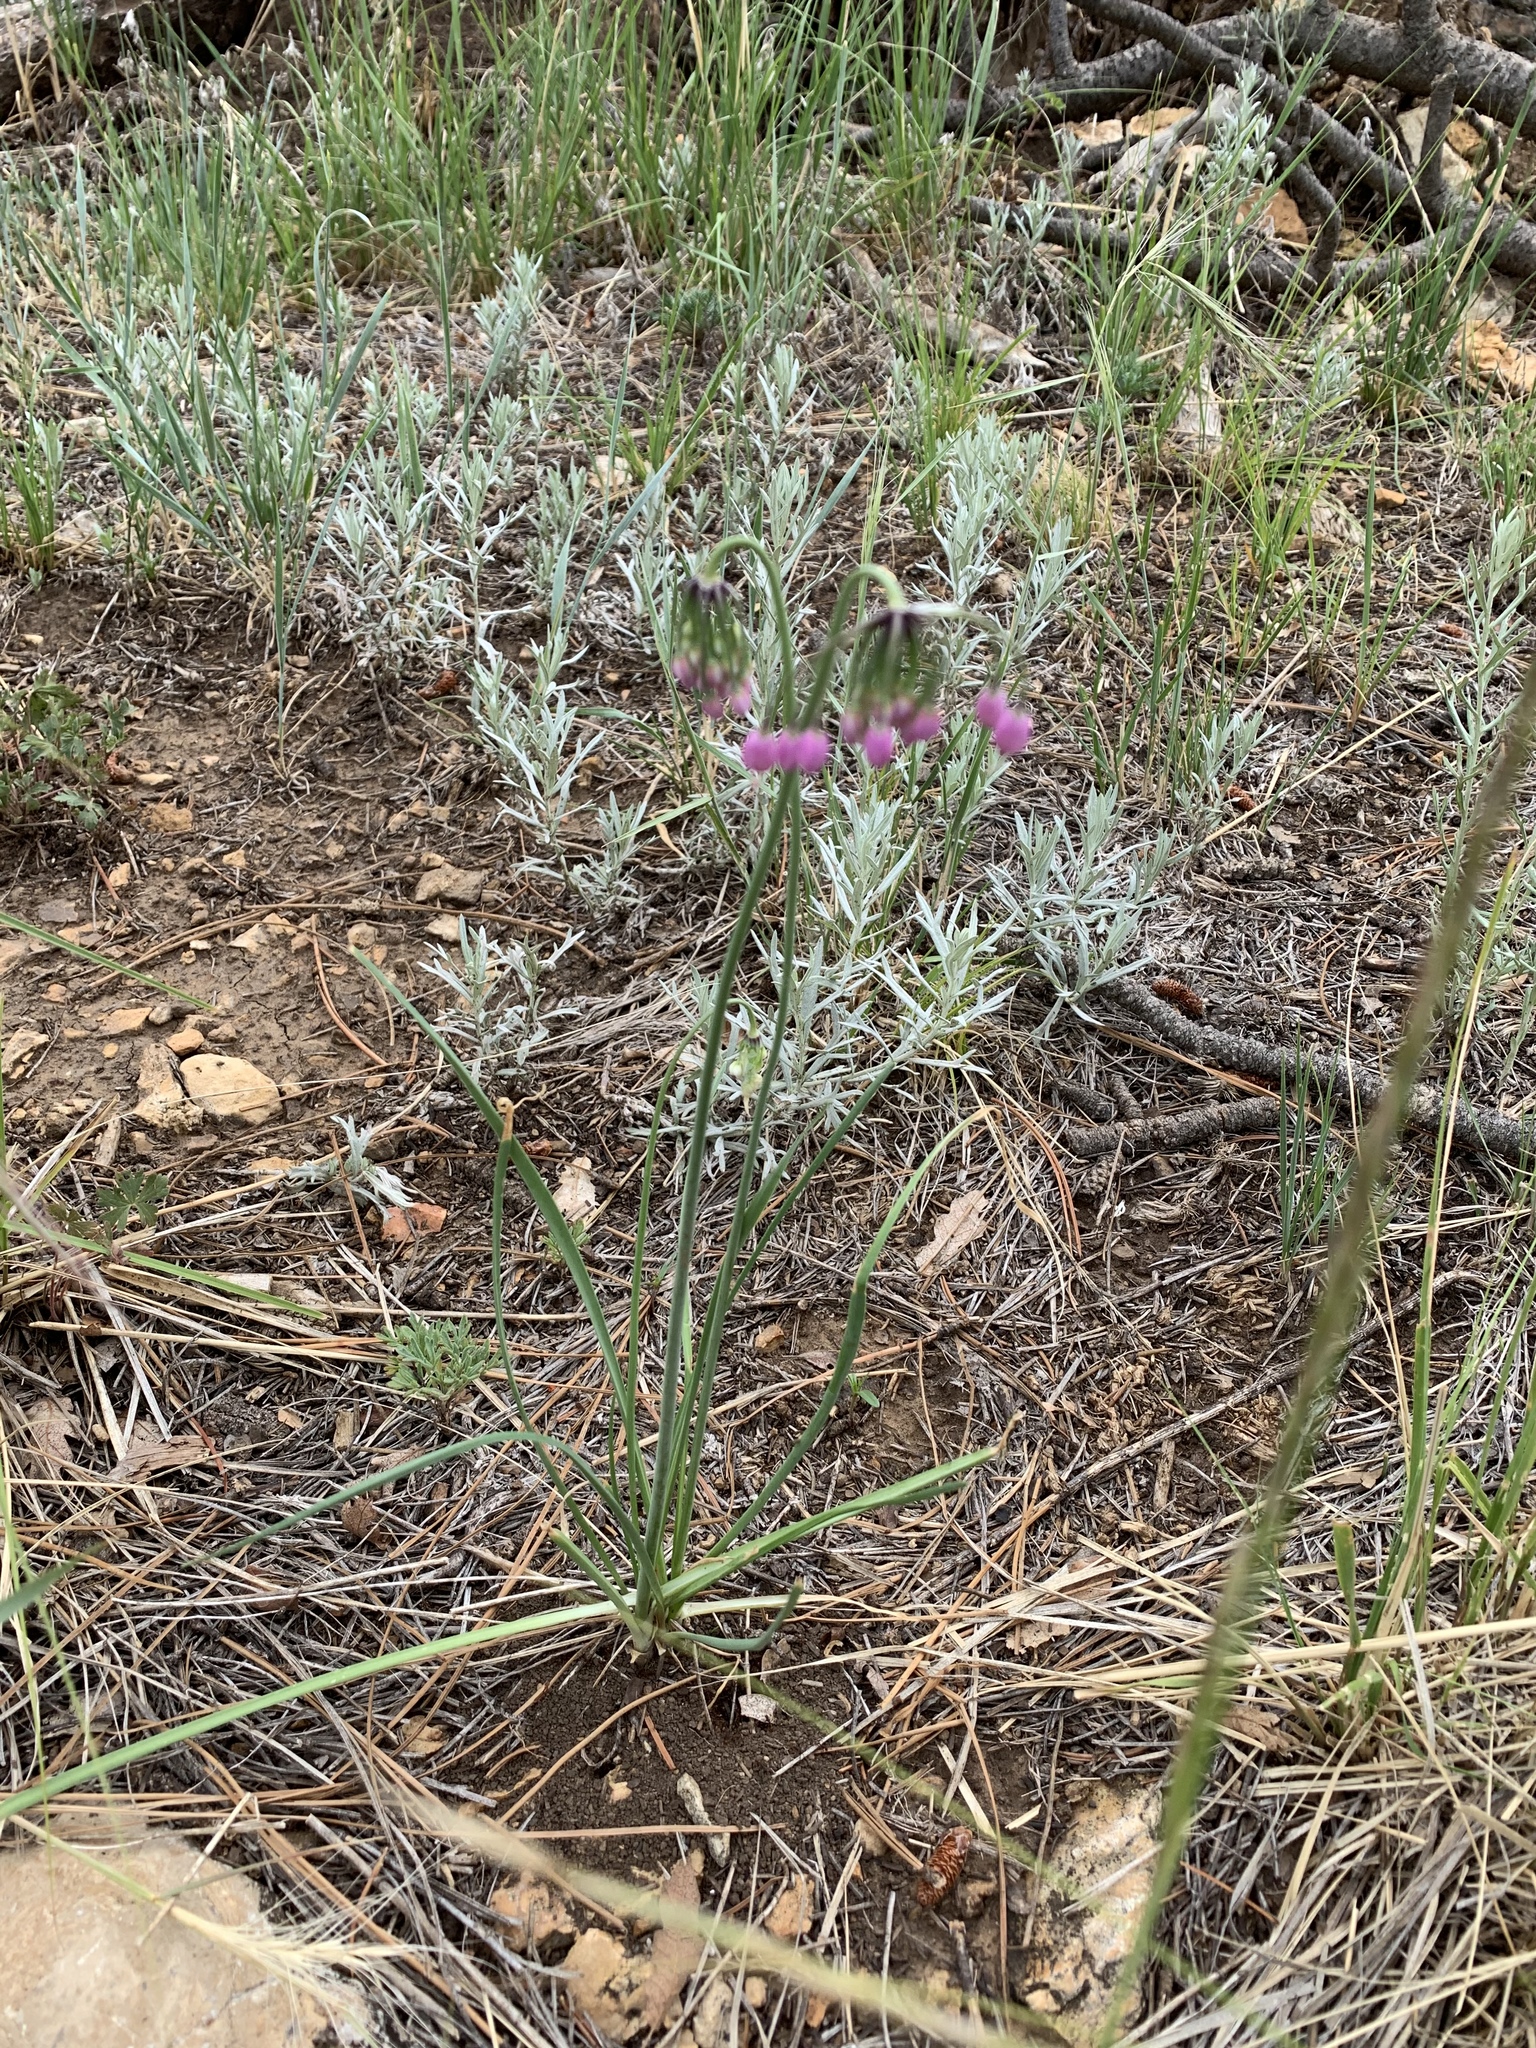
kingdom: Plantae
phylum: Tracheophyta
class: Liliopsida
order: Asparagales
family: Amaryllidaceae
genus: Allium
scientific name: Allium cernuum
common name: Nodding onion
